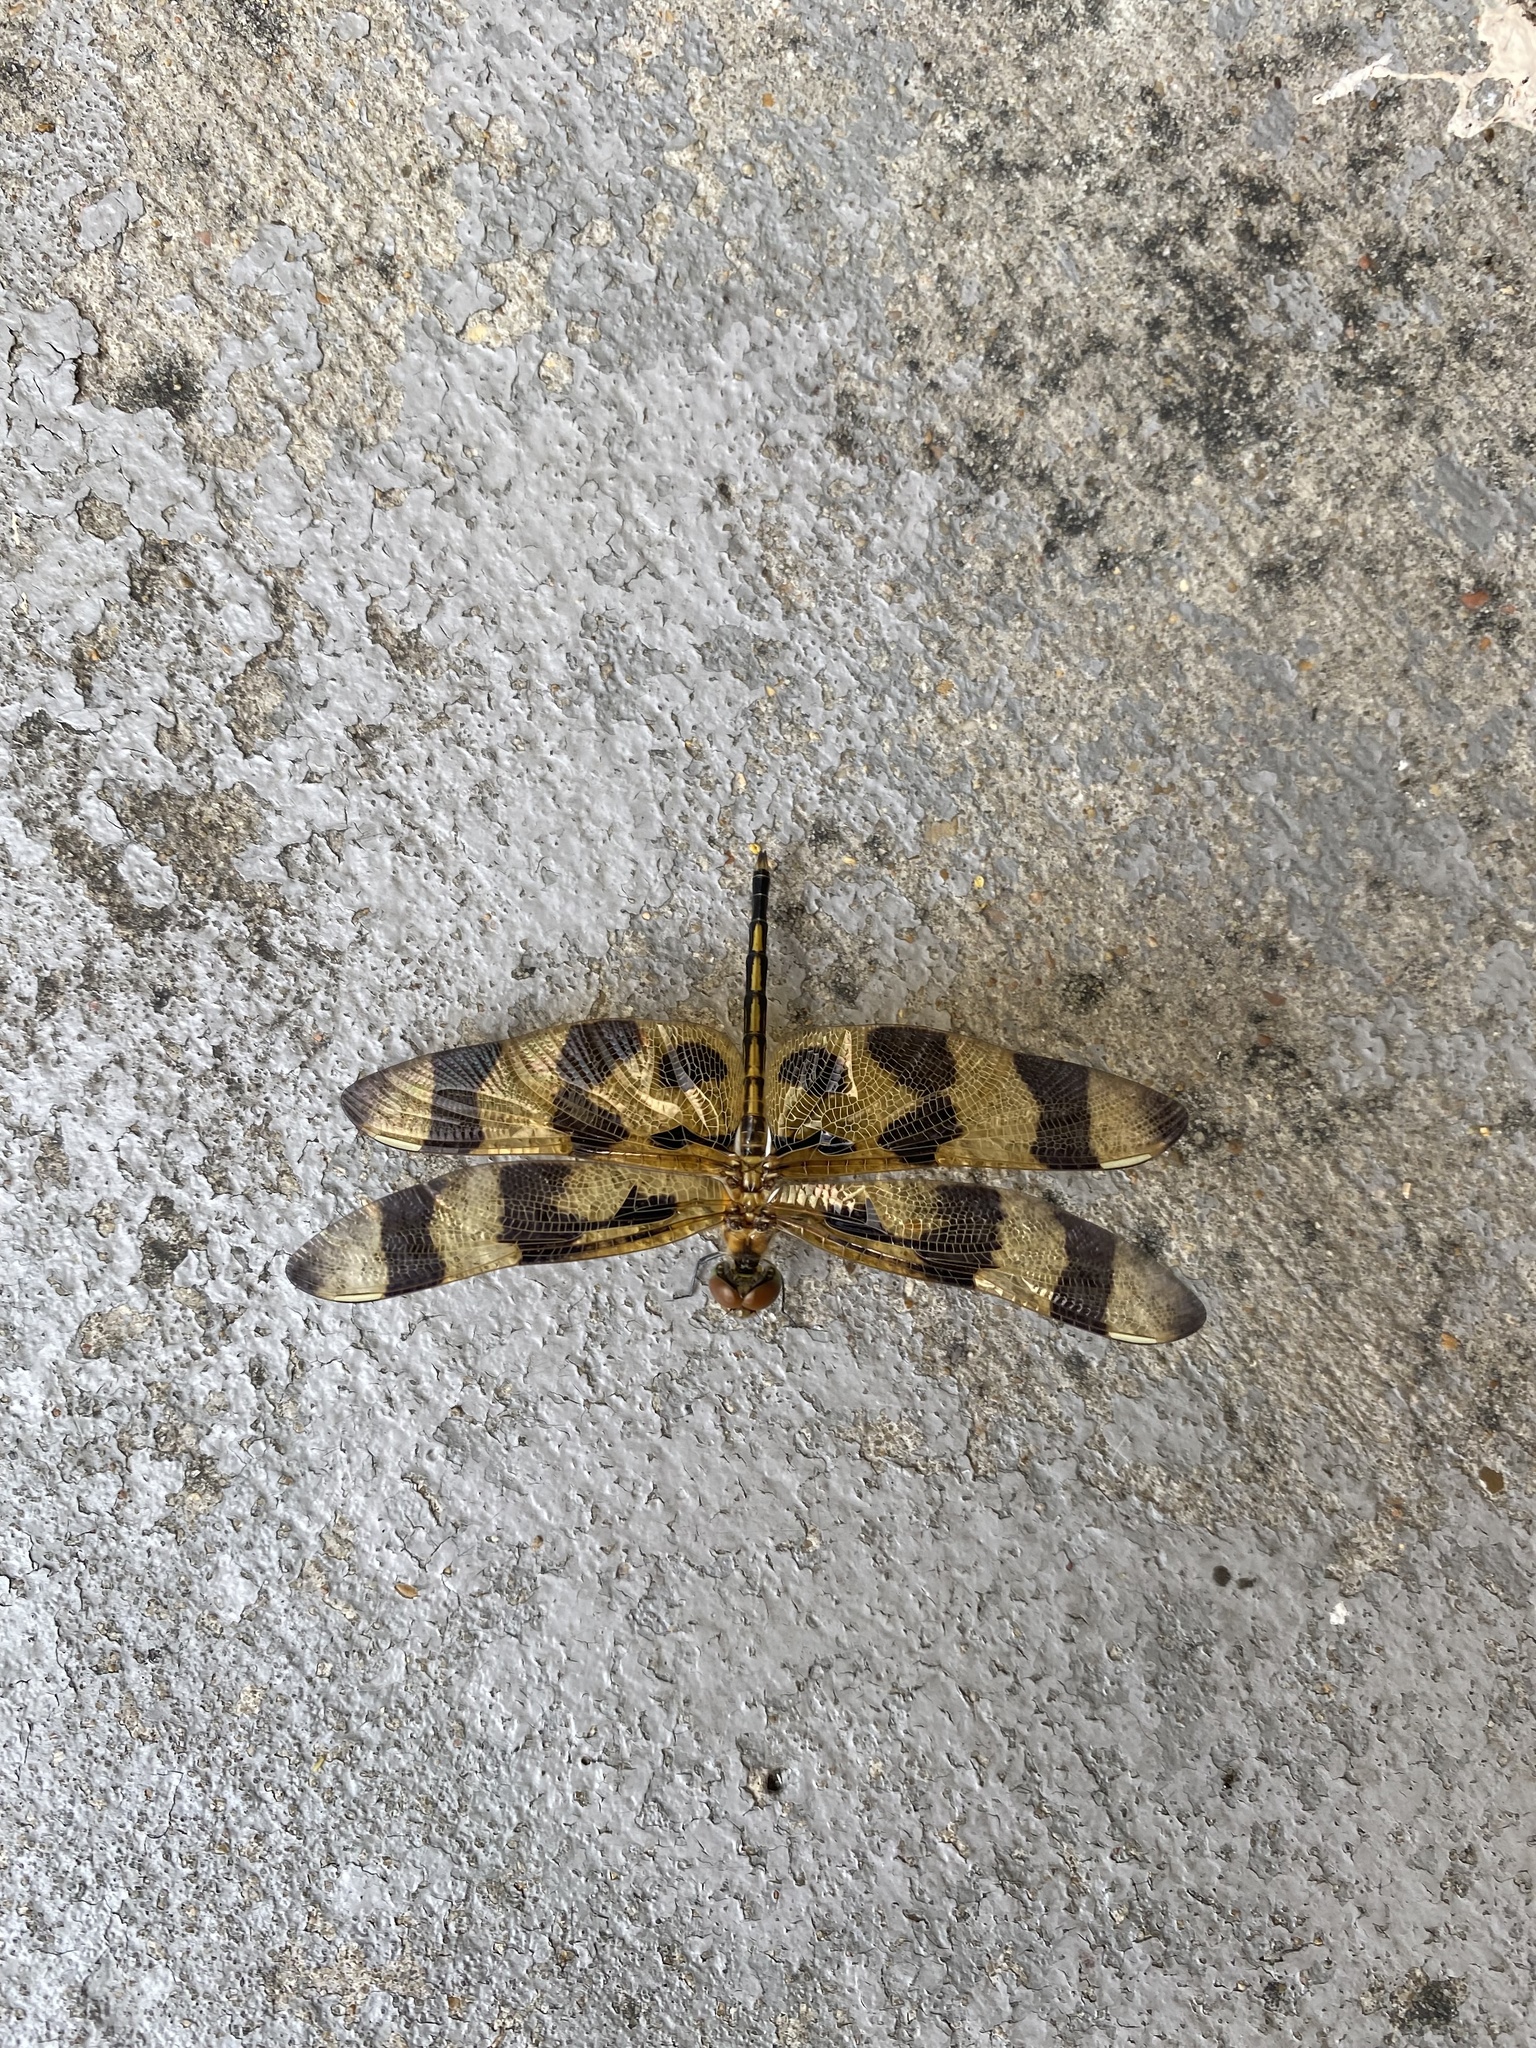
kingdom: Animalia
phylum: Arthropoda
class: Insecta
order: Odonata
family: Libellulidae
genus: Celithemis
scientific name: Celithemis eponina
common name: Halloween pennant
